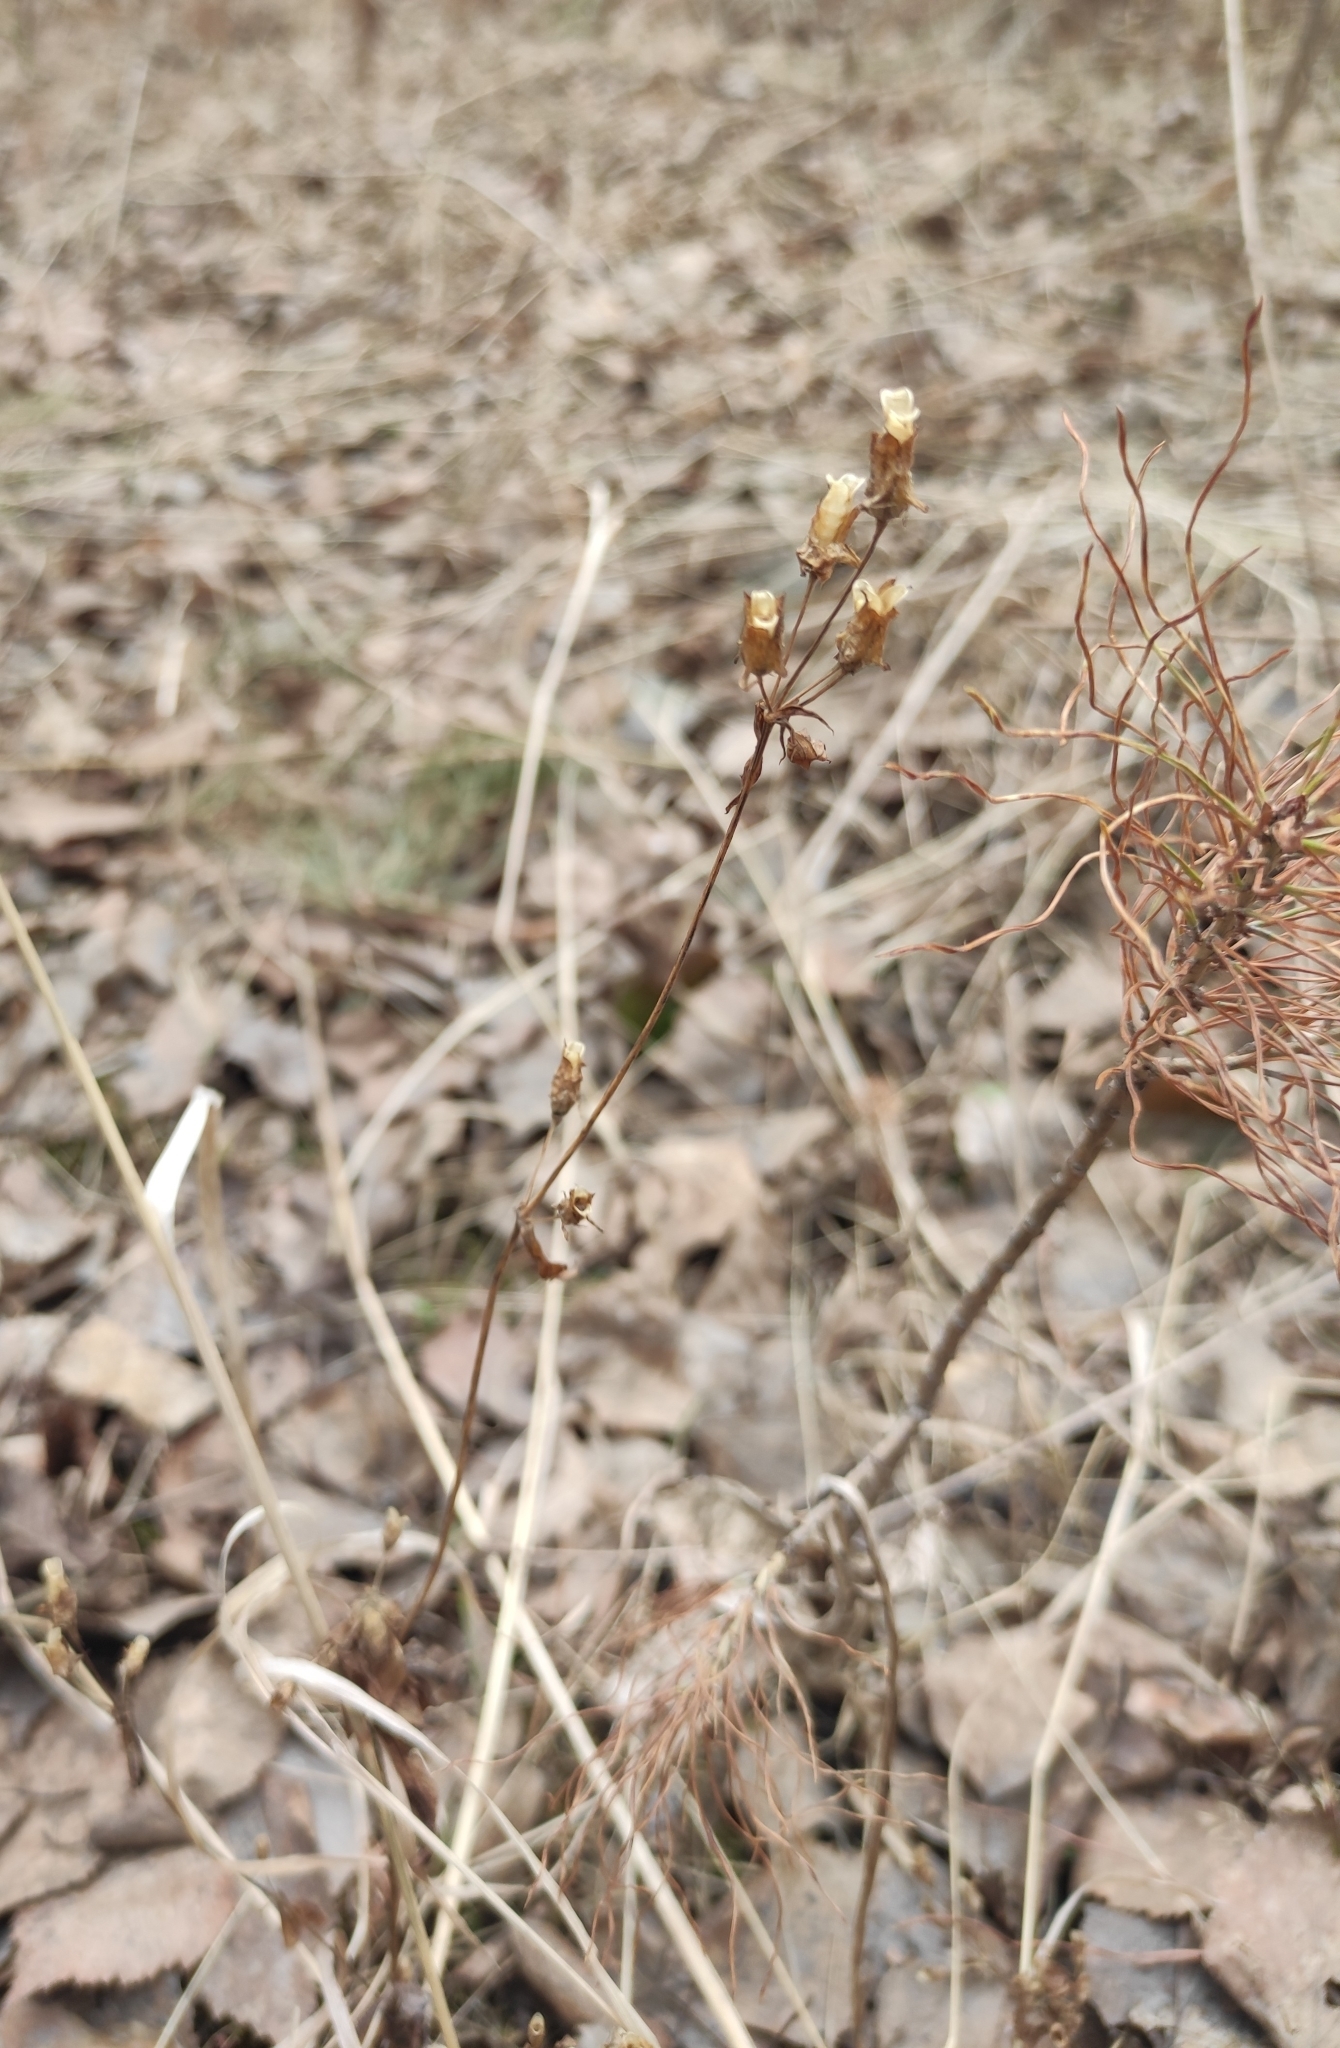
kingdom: Plantae
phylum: Tracheophyta
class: Magnoliopsida
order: Gentianales
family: Gentianaceae
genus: Halenia
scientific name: Halenia corniculata
